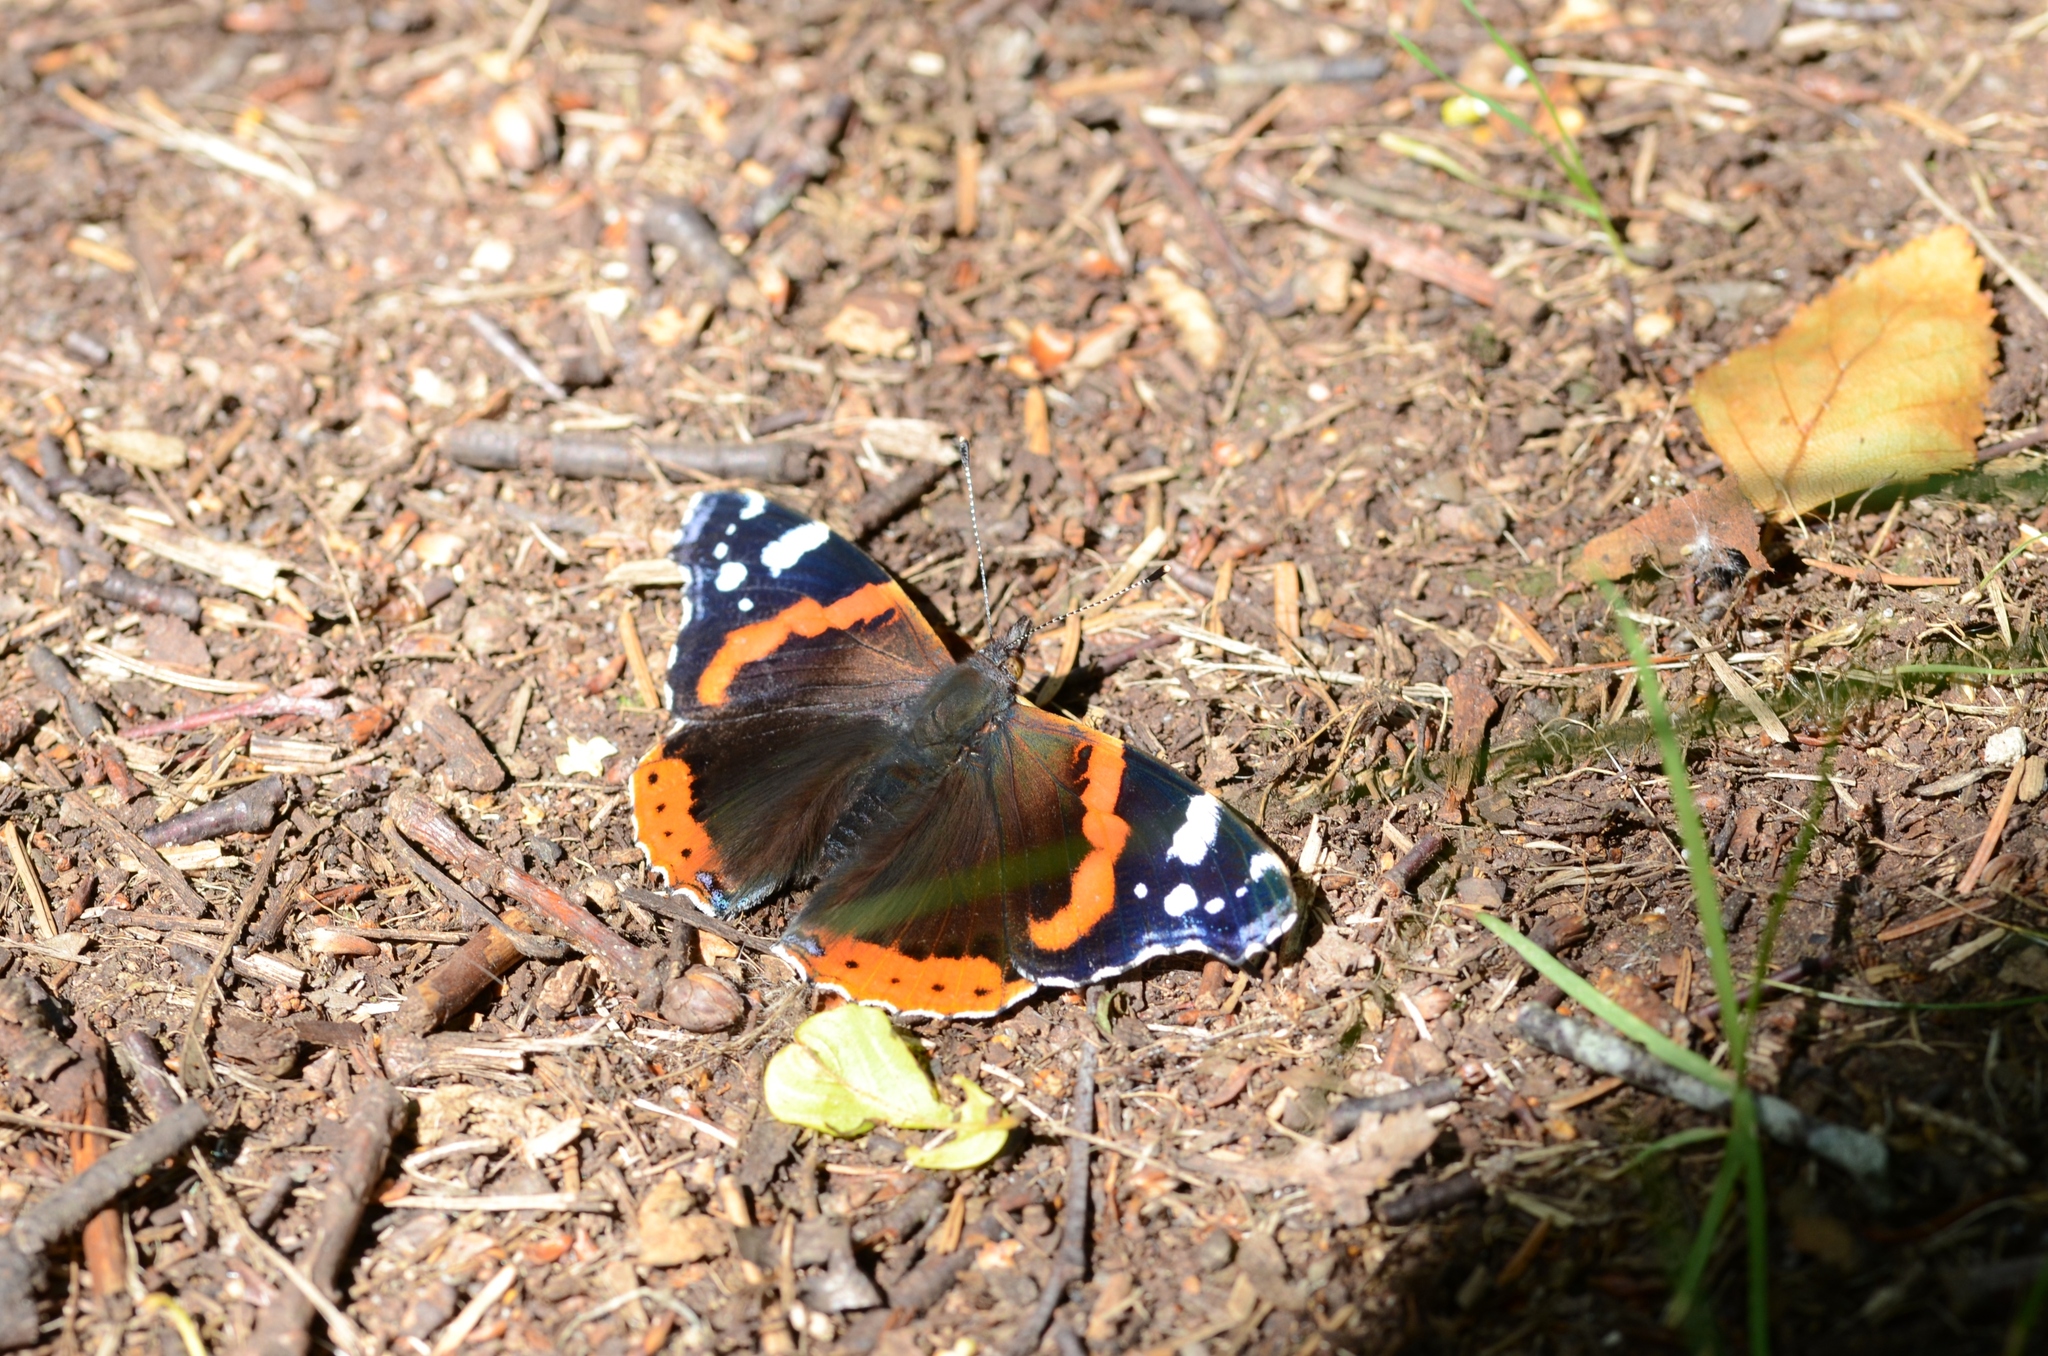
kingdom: Animalia
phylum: Arthropoda
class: Insecta
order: Lepidoptera
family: Nymphalidae
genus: Vanessa
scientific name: Vanessa atalanta
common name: Red admiral
